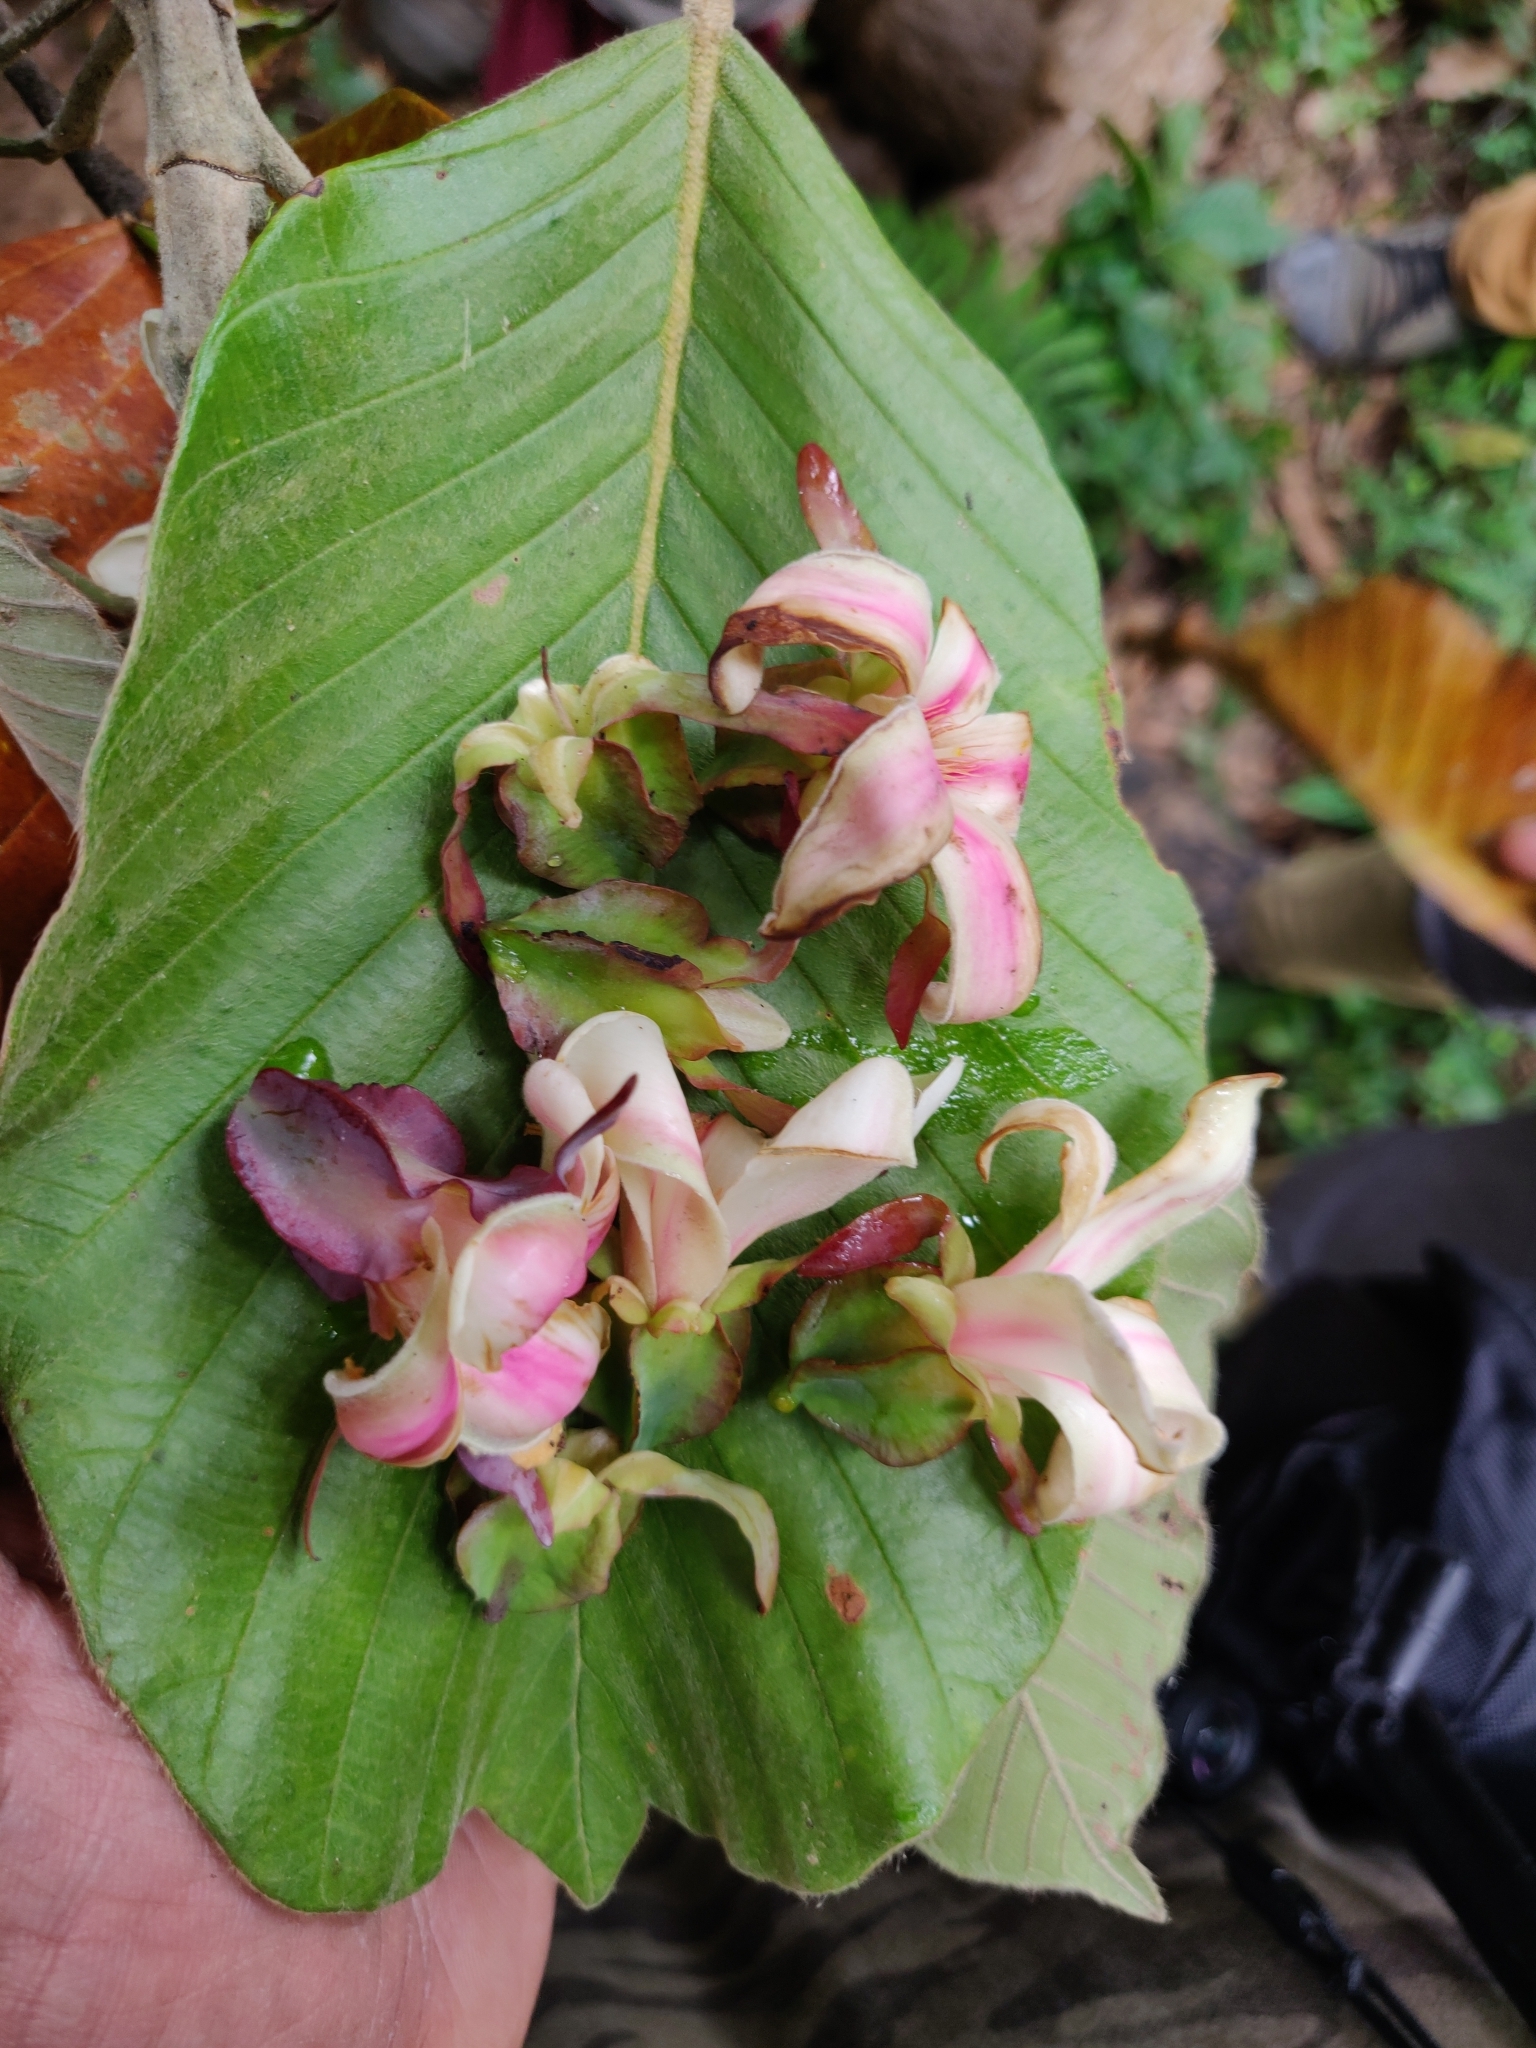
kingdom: Plantae
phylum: Tracheophyta
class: Magnoliopsida
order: Malvales
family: Dipterocarpaceae
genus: Dipterocarpus
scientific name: Dipterocarpus bourdillonii
